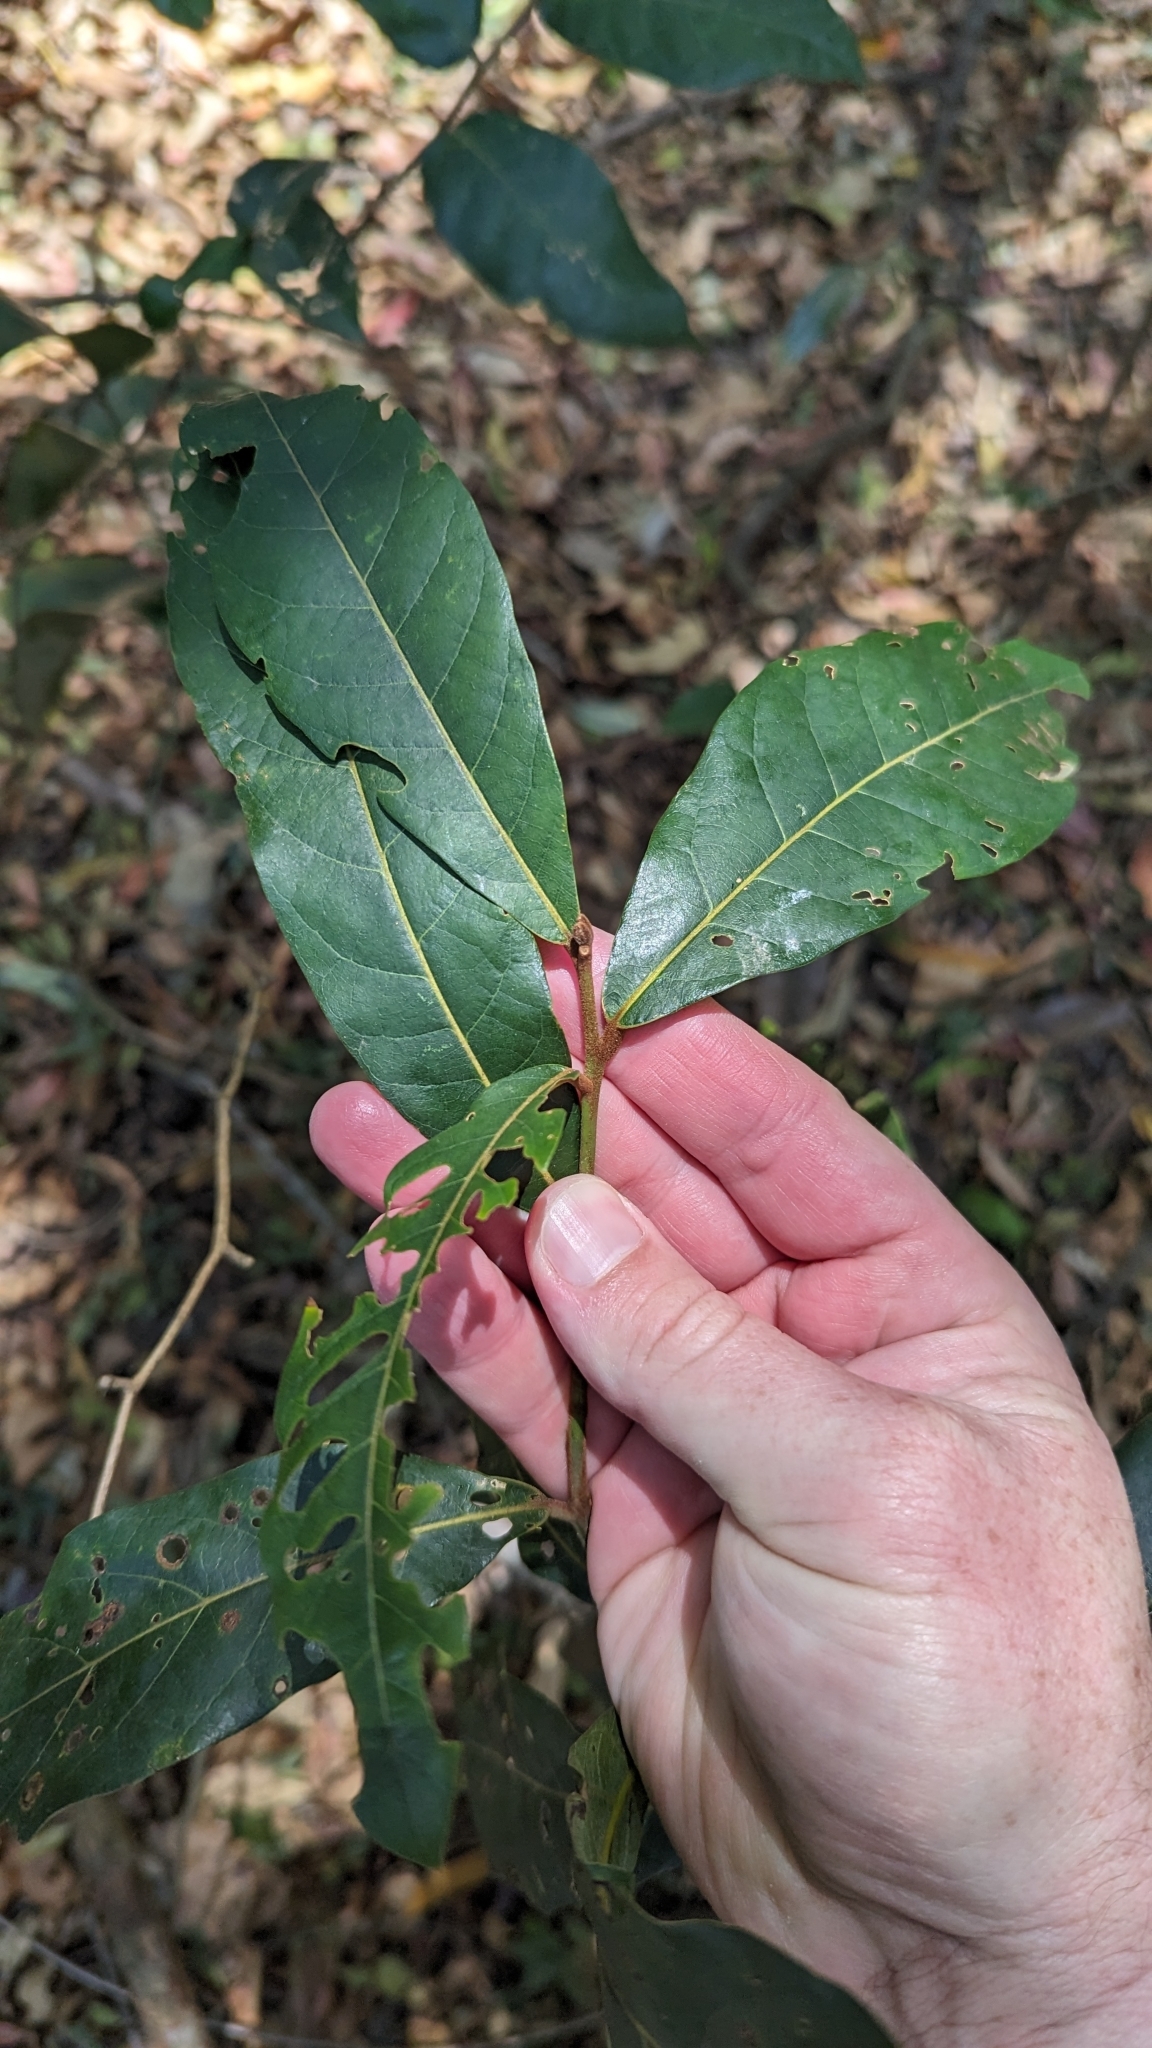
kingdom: Plantae
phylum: Tracheophyta
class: Magnoliopsida
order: Laurales
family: Lauraceae
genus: Cryptocarya
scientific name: Cryptocarya obovata
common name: Pepperberry-tree
